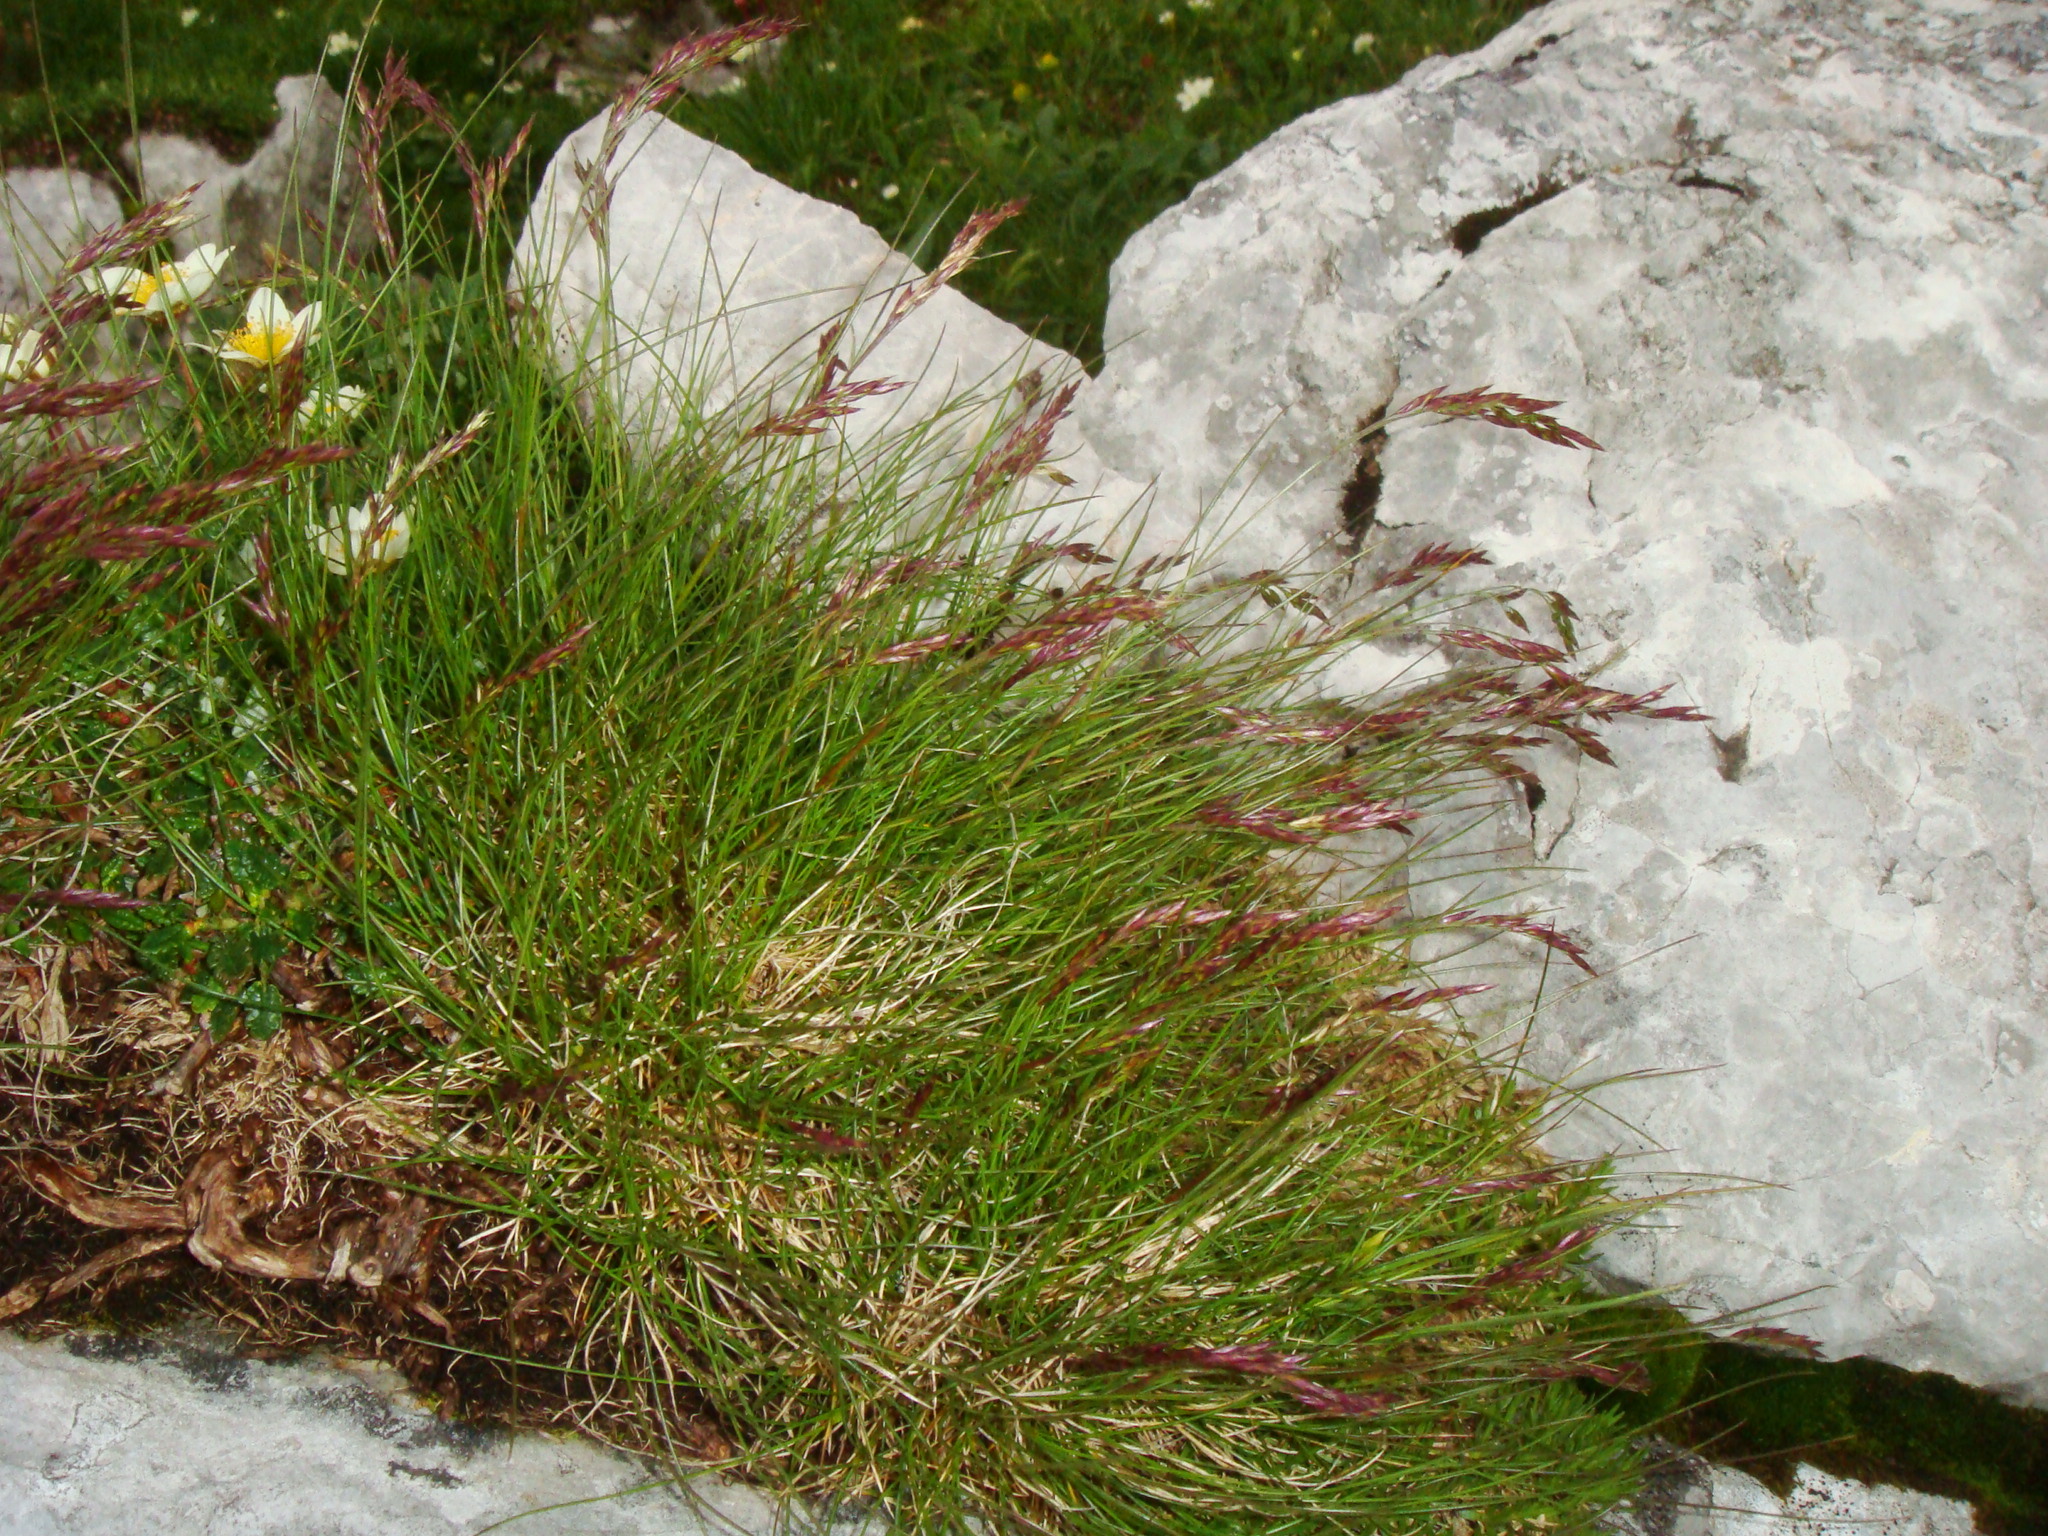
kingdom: Plantae
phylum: Tracheophyta
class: Liliopsida
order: Poales
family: Poaceae
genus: Festuca
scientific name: Festuca quadriflora
